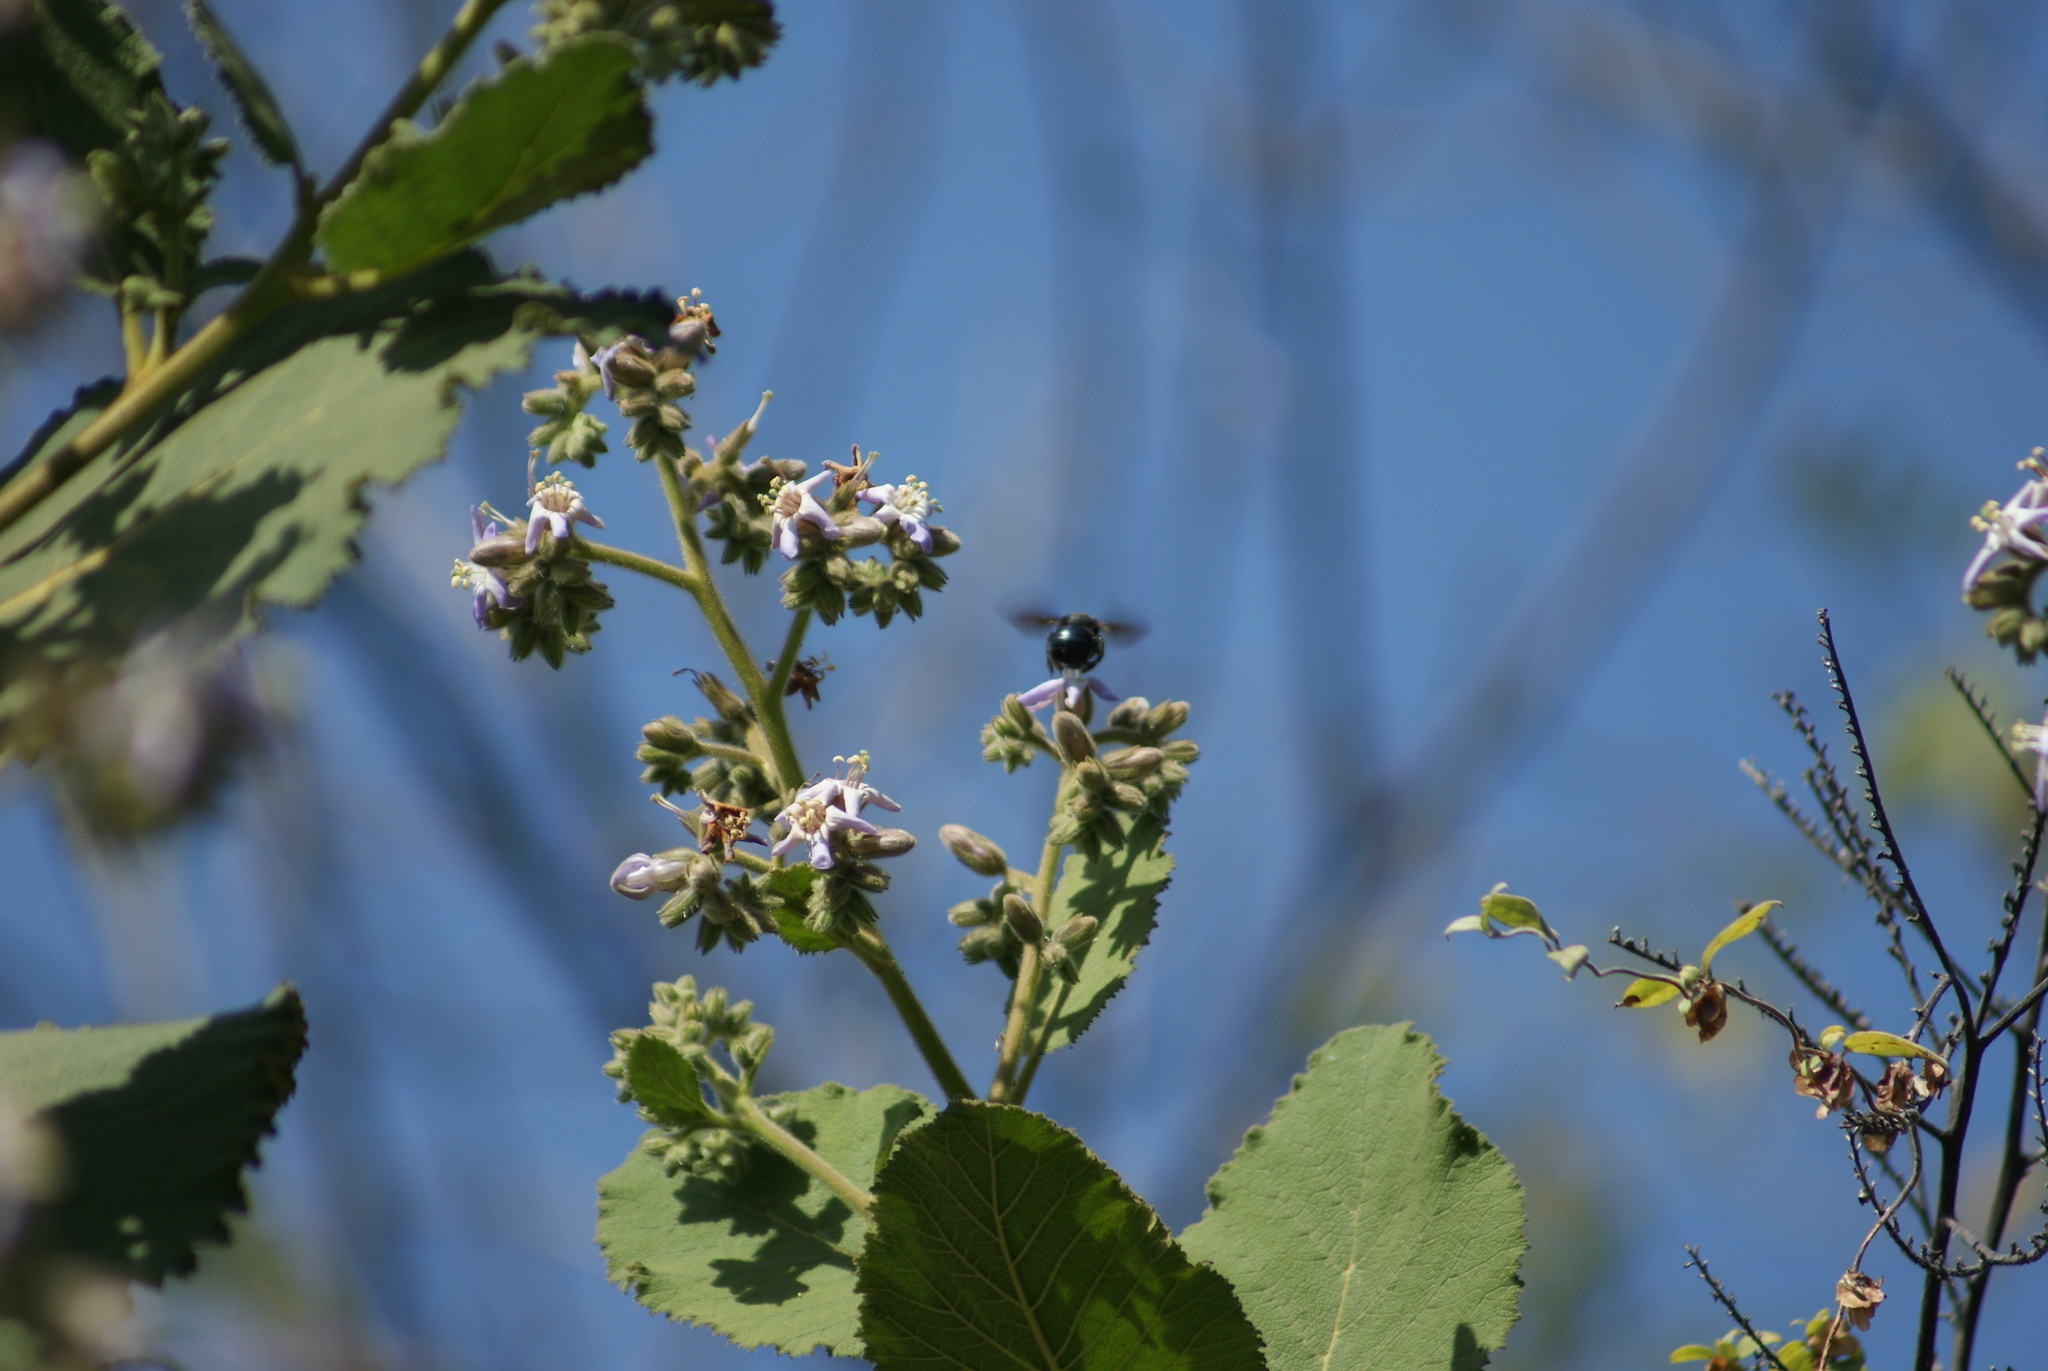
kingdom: Plantae
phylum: Tracheophyta
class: Magnoliopsida
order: Boraginales
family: Namaceae
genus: Wigandia
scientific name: Wigandia urens
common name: Caracus wigandia
